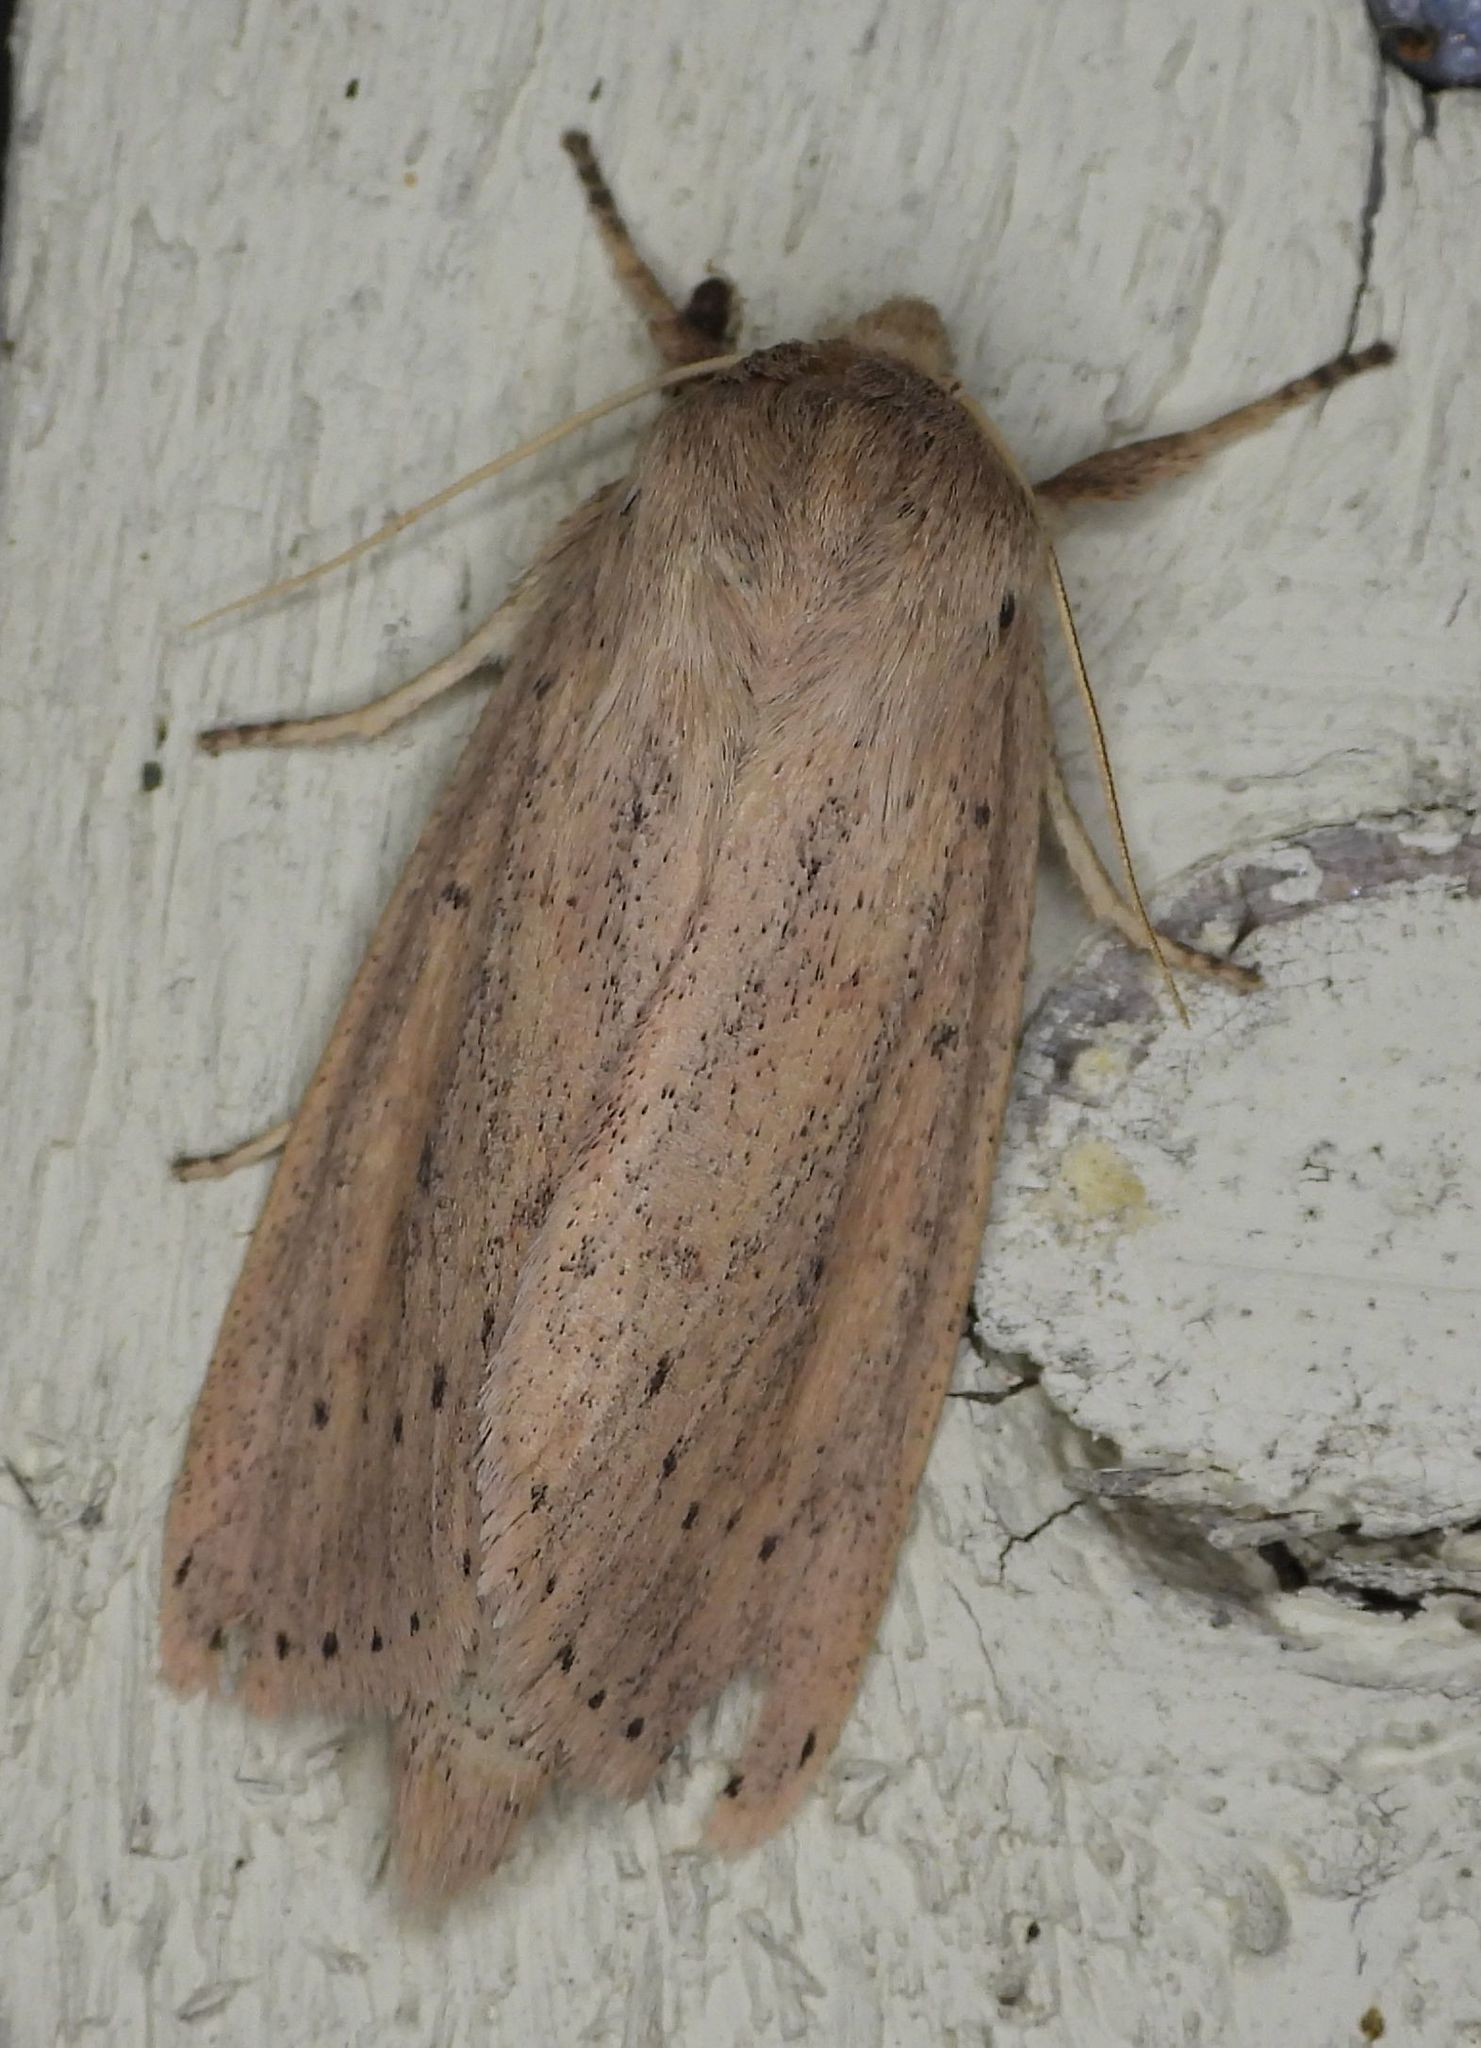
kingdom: Animalia
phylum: Arthropoda
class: Insecta
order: Lepidoptera
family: Noctuidae
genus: Globia
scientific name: Globia oblonga
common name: Oblong sedge borer moth
